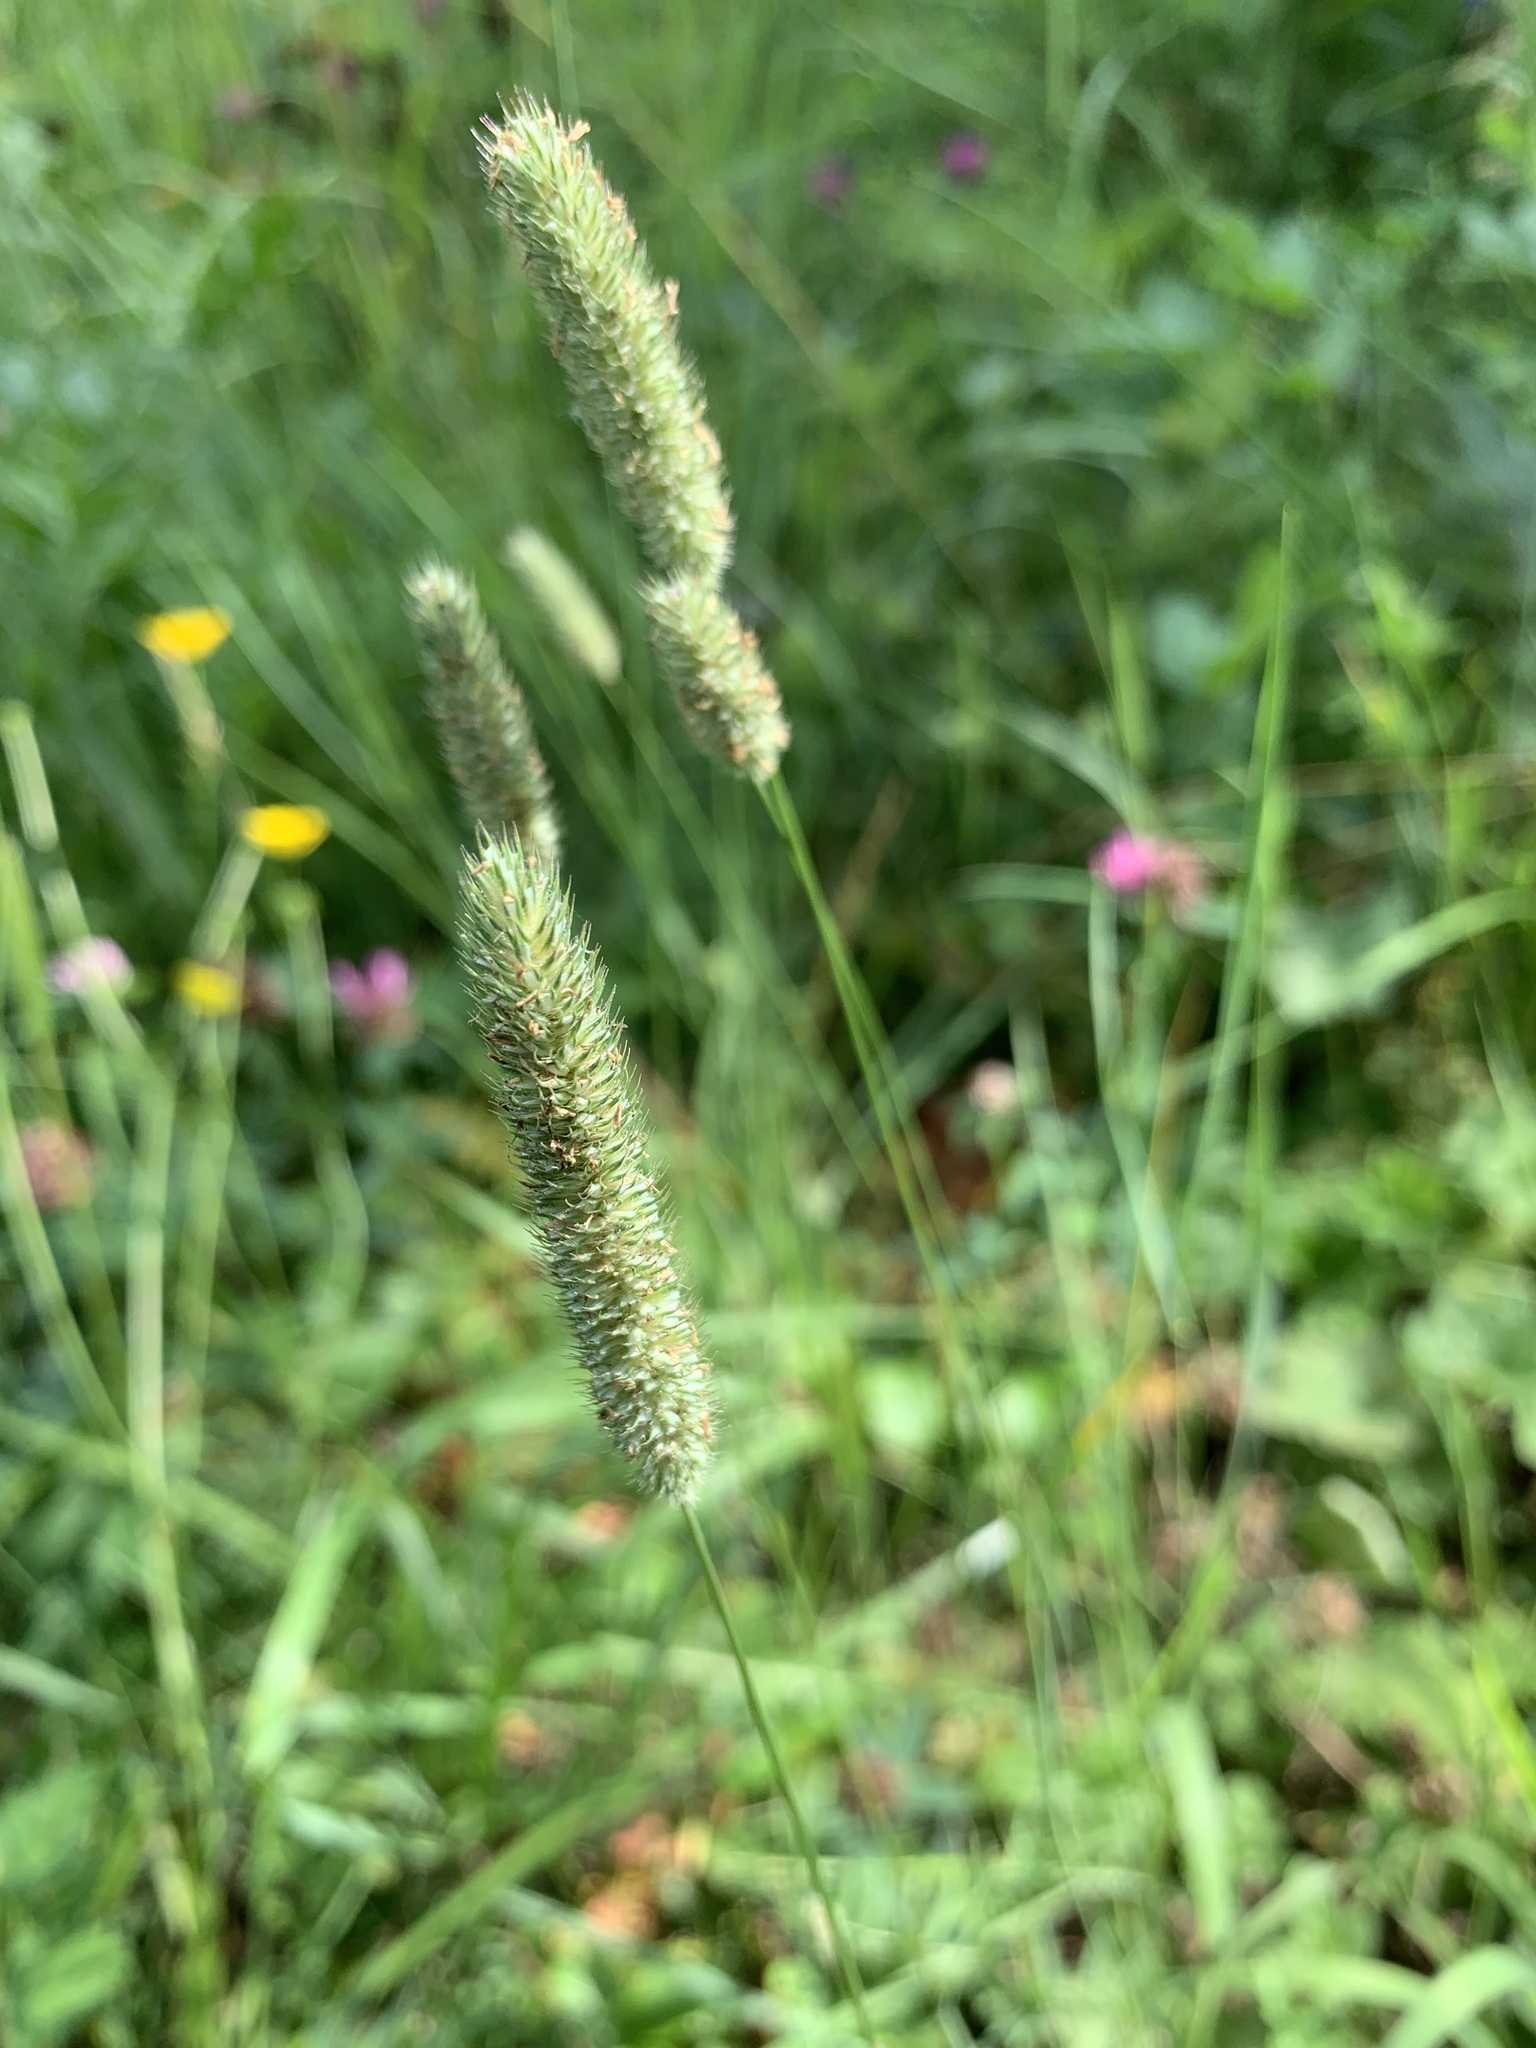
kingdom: Plantae
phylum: Tracheophyta
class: Liliopsida
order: Poales
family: Poaceae
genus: Phleum
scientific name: Phleum pratense
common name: Timothy grass
